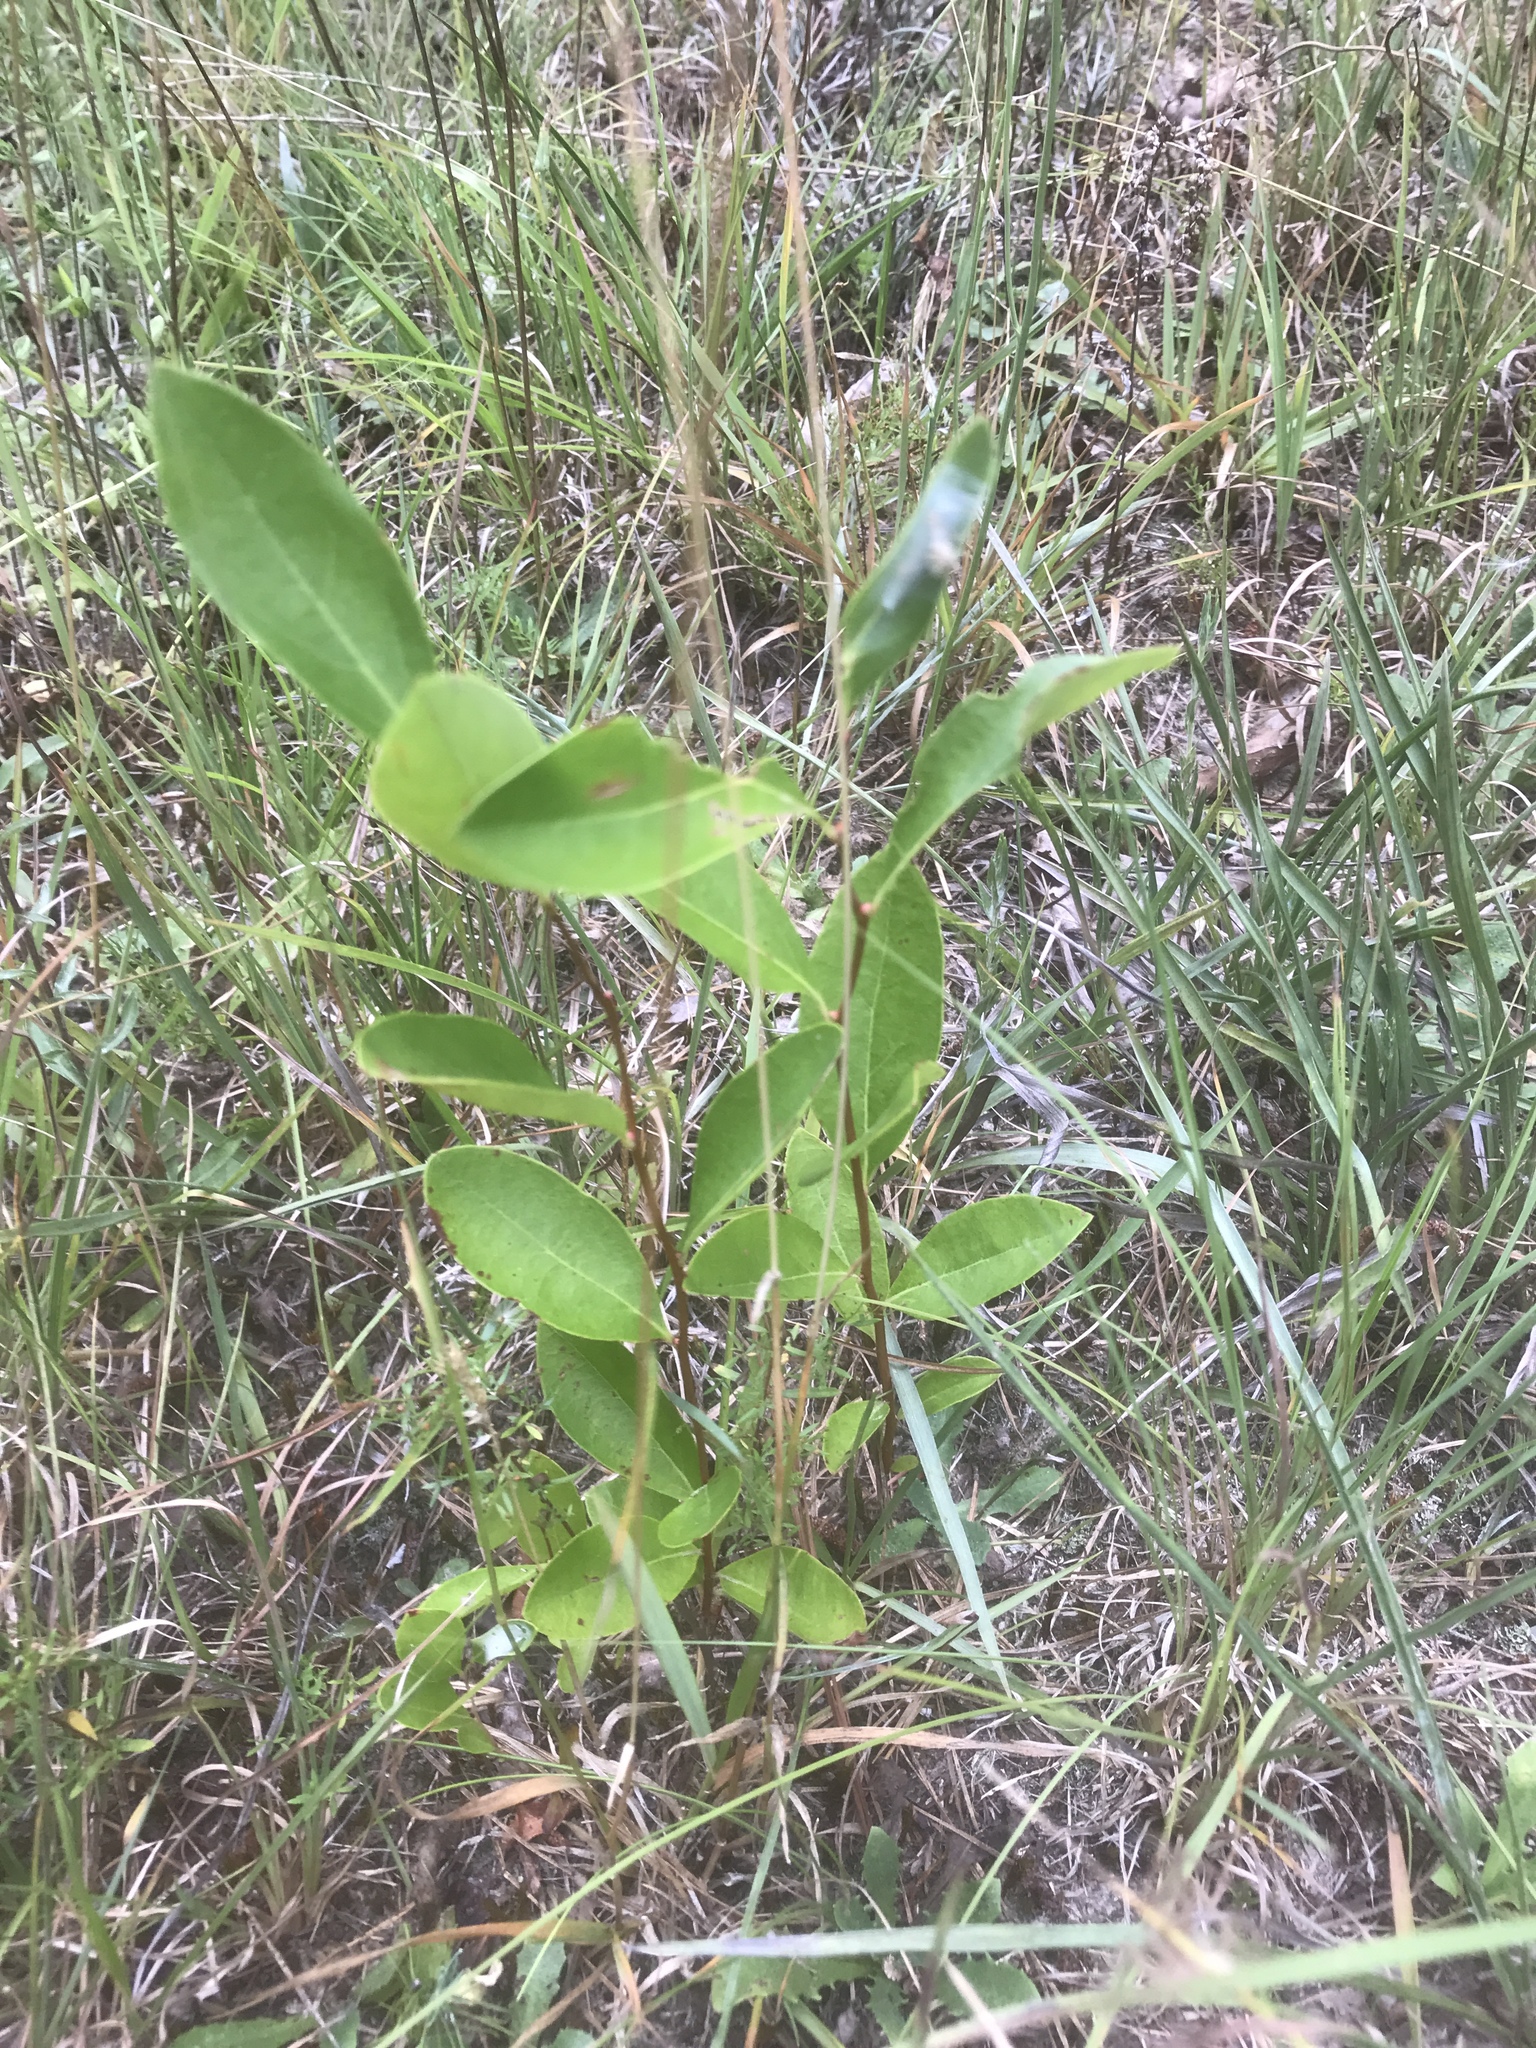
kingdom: Plantae
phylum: Tracheophyta
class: Magnoliopsida
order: Ericales
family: Ericaceae
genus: Lyonia
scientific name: Lyonia mariana
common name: Staggerbush
